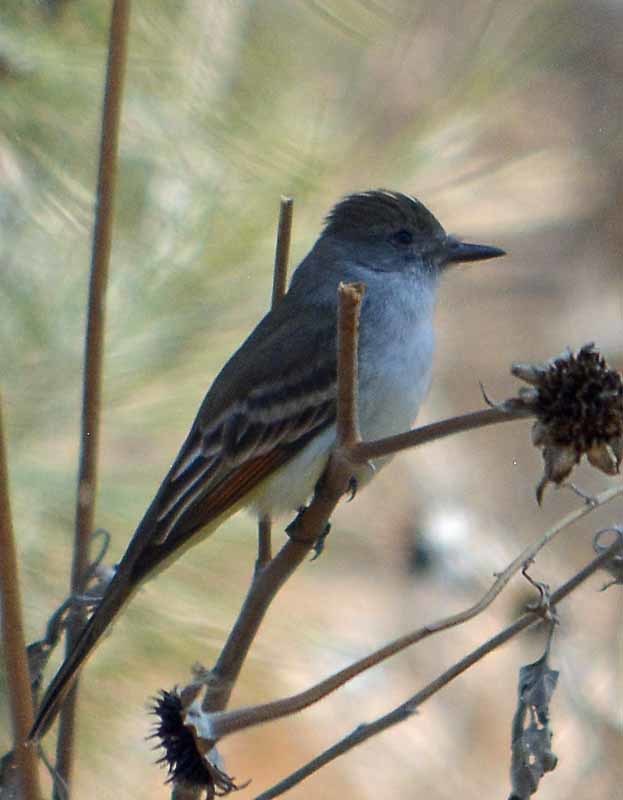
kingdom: Animalia
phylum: Chordata
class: Aves
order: Passeriformes
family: Tyrannidae
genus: Myiarchus
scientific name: Myiarchus cinerascens
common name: Ash-throated flycatcher
